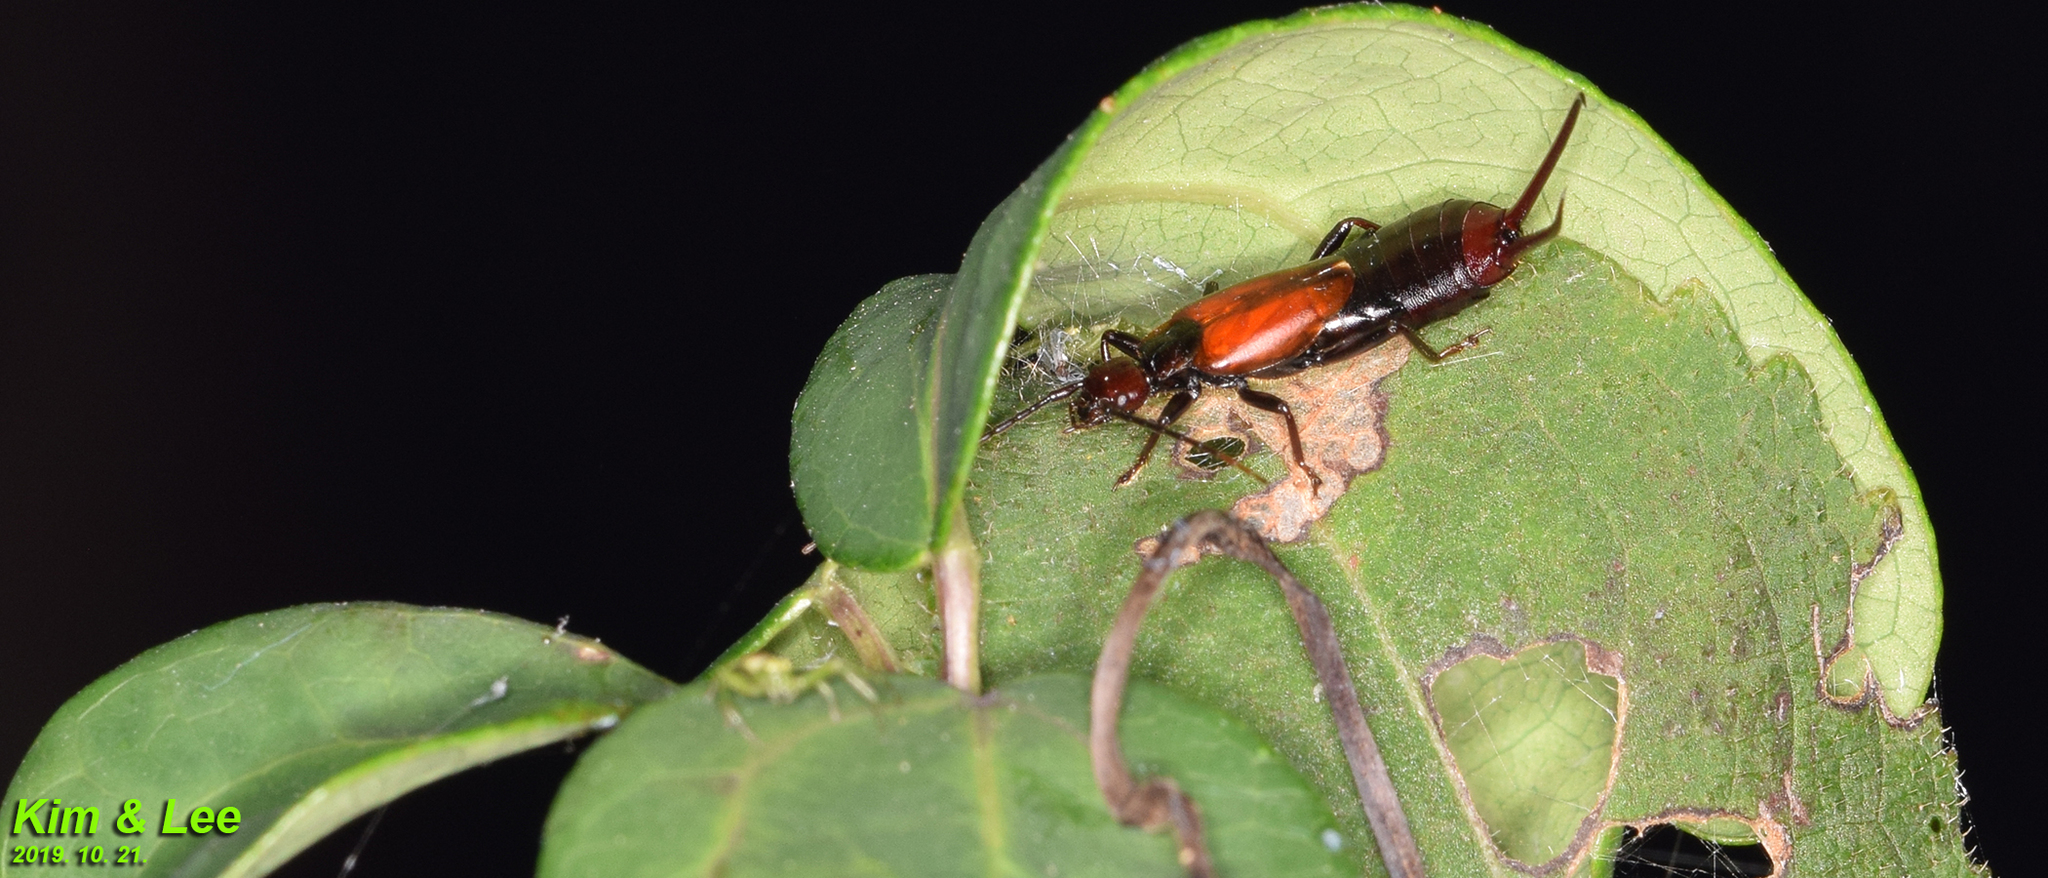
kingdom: Animalia
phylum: Arthropoda
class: Insecta
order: Dermaptera
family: Forficulidae
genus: Timomenus
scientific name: Timomenus komarovi
